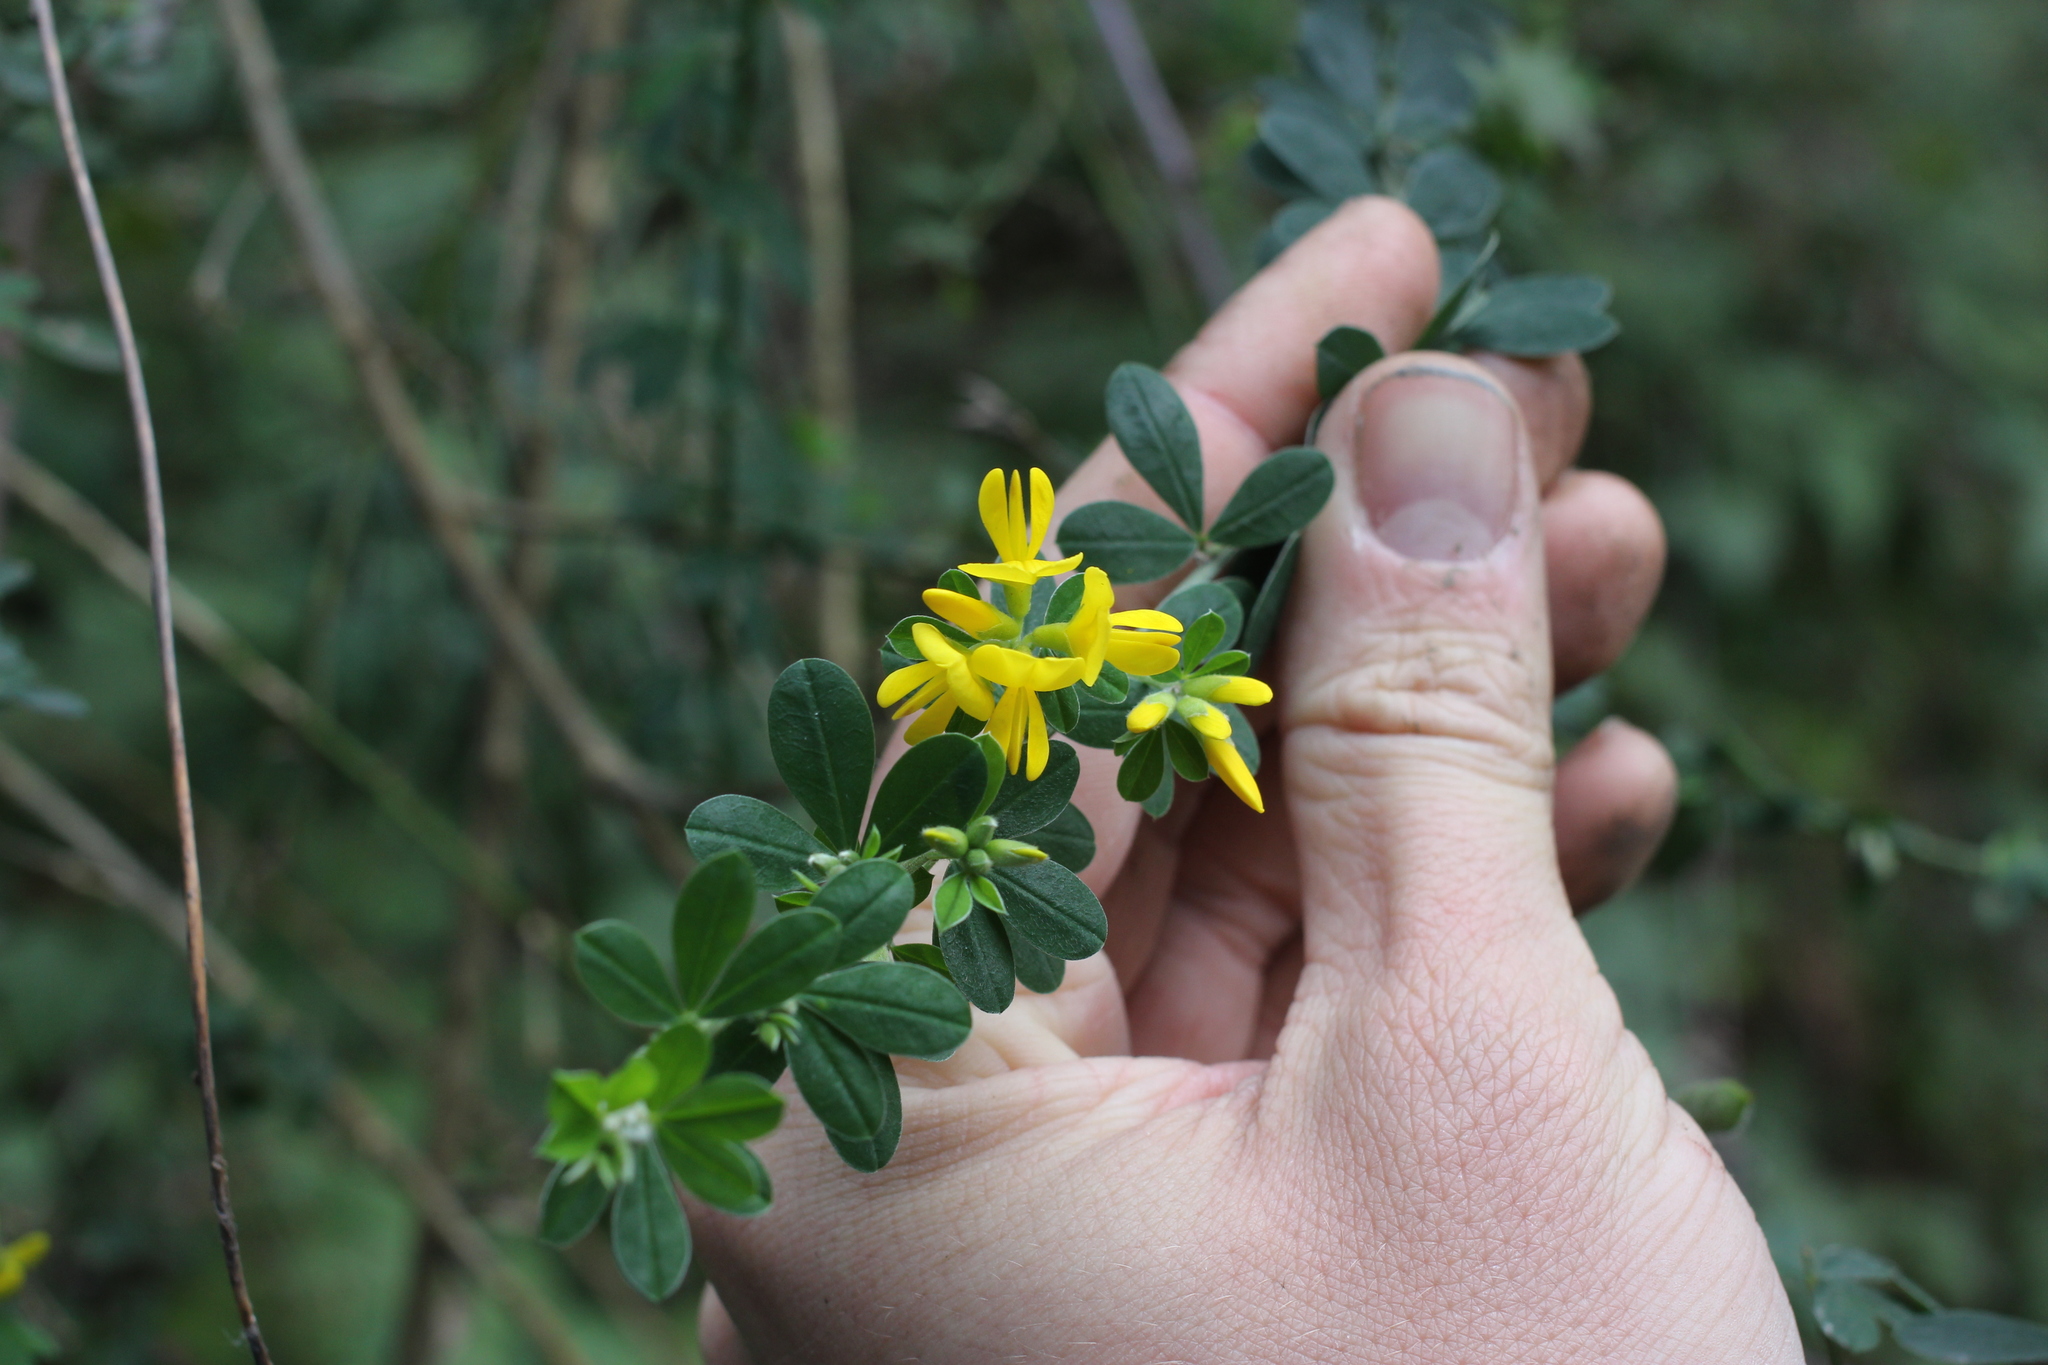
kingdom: Plantae
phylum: Tracheophyta
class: Magnoliopsida
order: Fabales
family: Fabaceae
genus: Genista
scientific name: Genista monspessulana
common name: Montpellier broom
